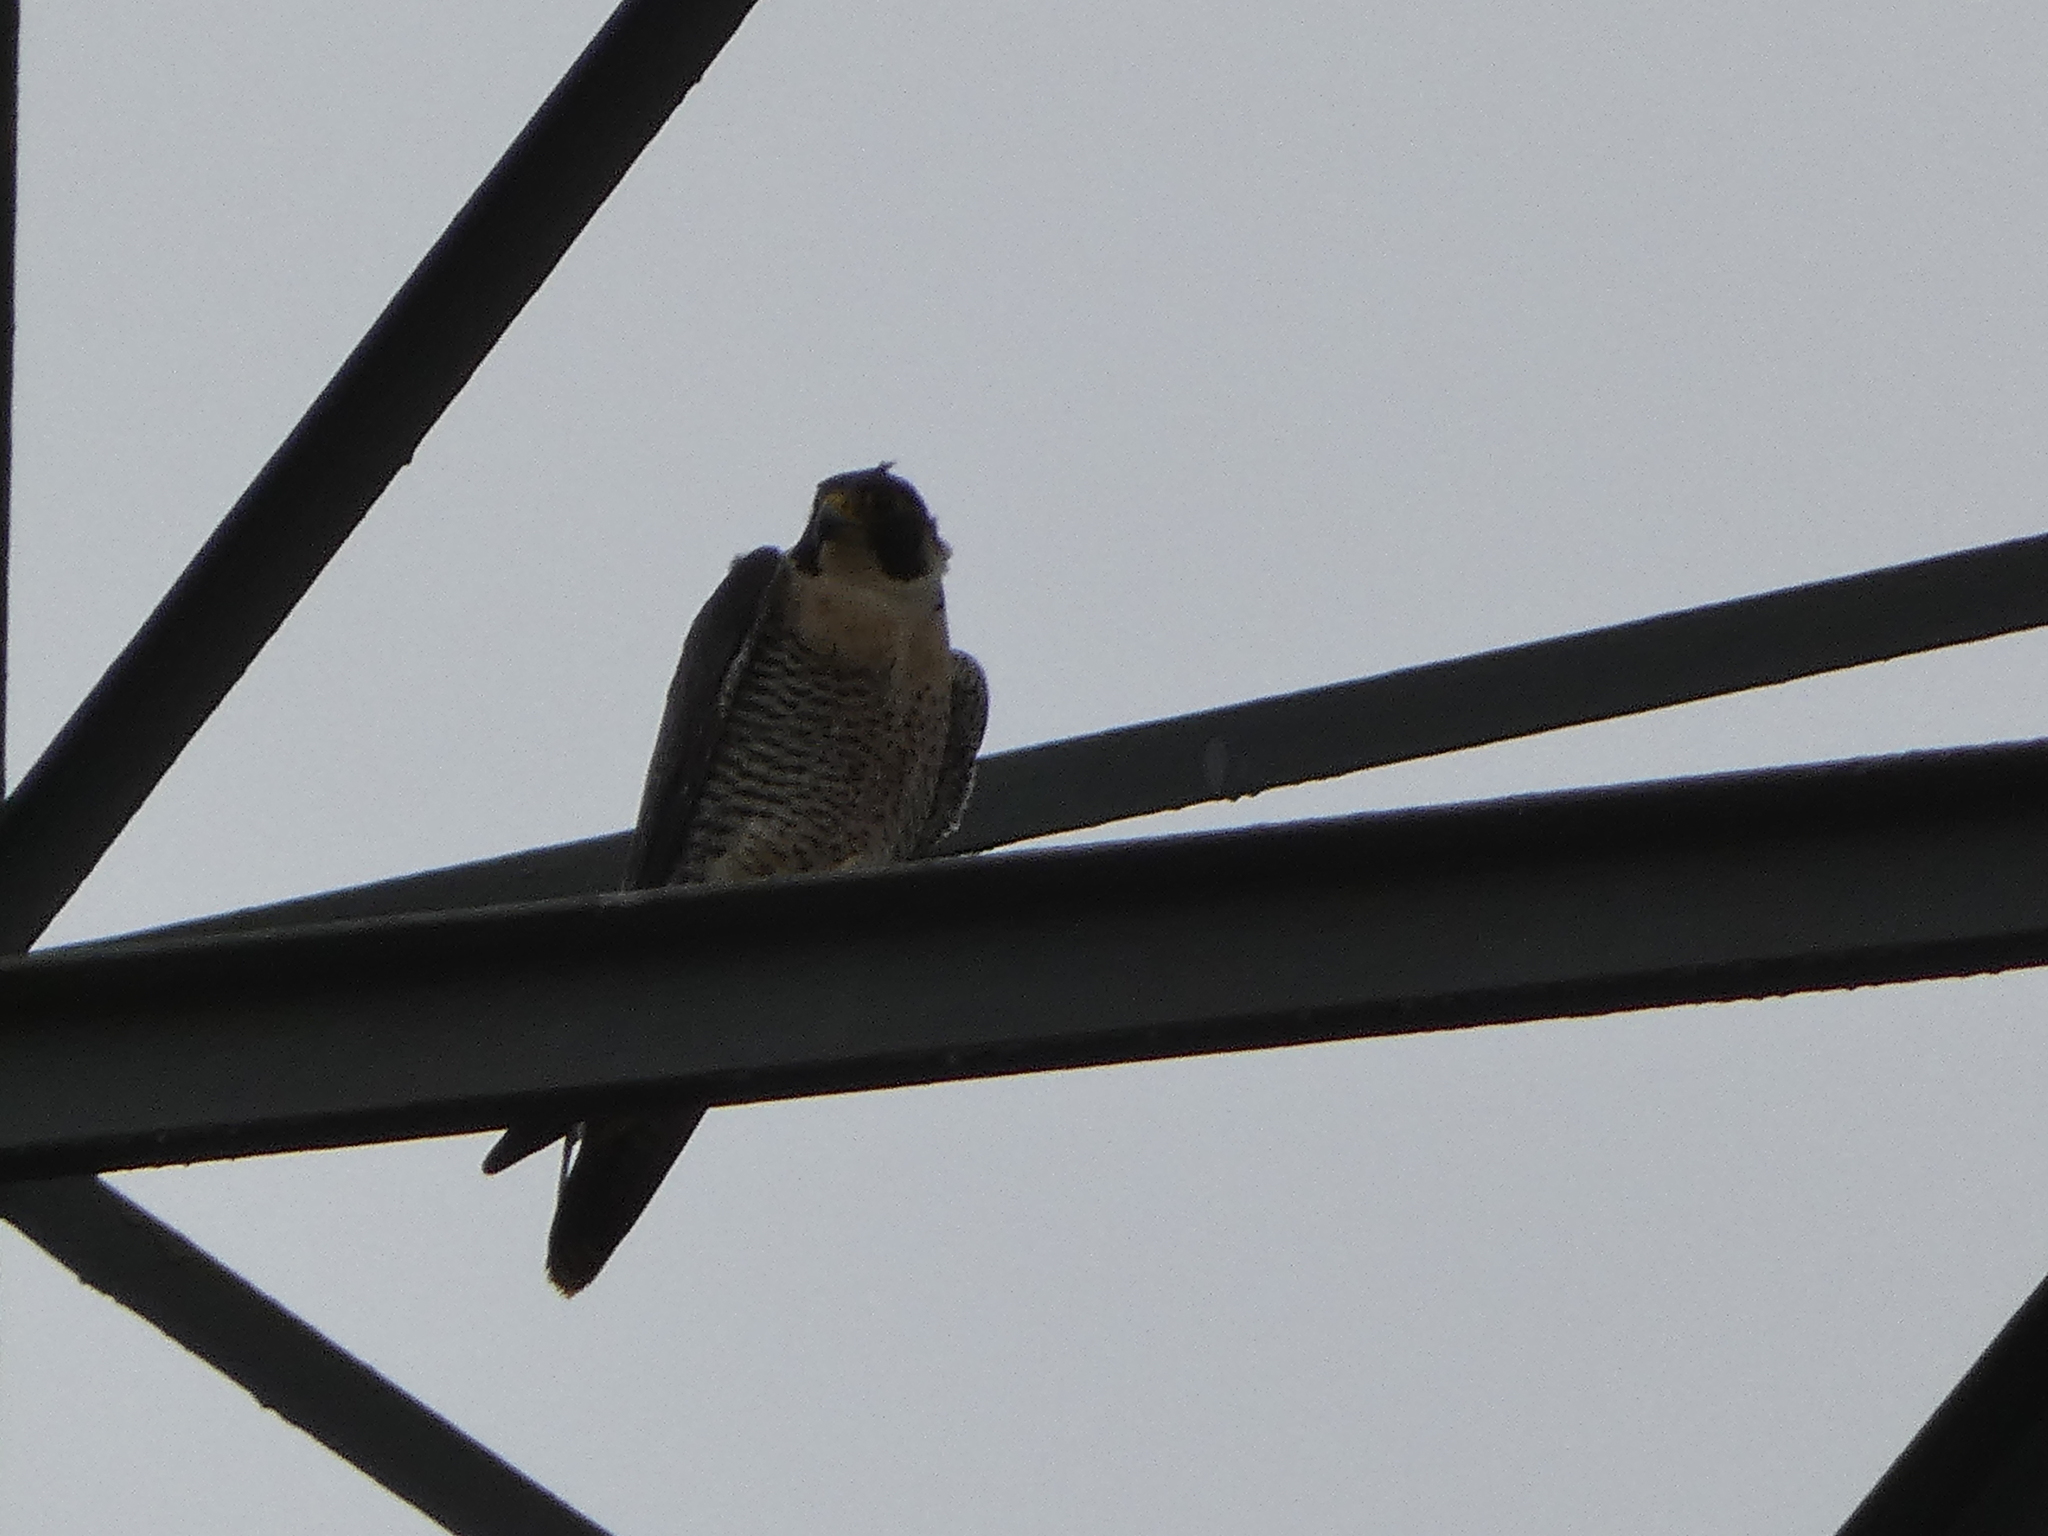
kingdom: Animalia
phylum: Chordata
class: Aves
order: Falconiformes
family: Falconidae
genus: Falco
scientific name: Falco peregrinus
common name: Peregrine falcon
